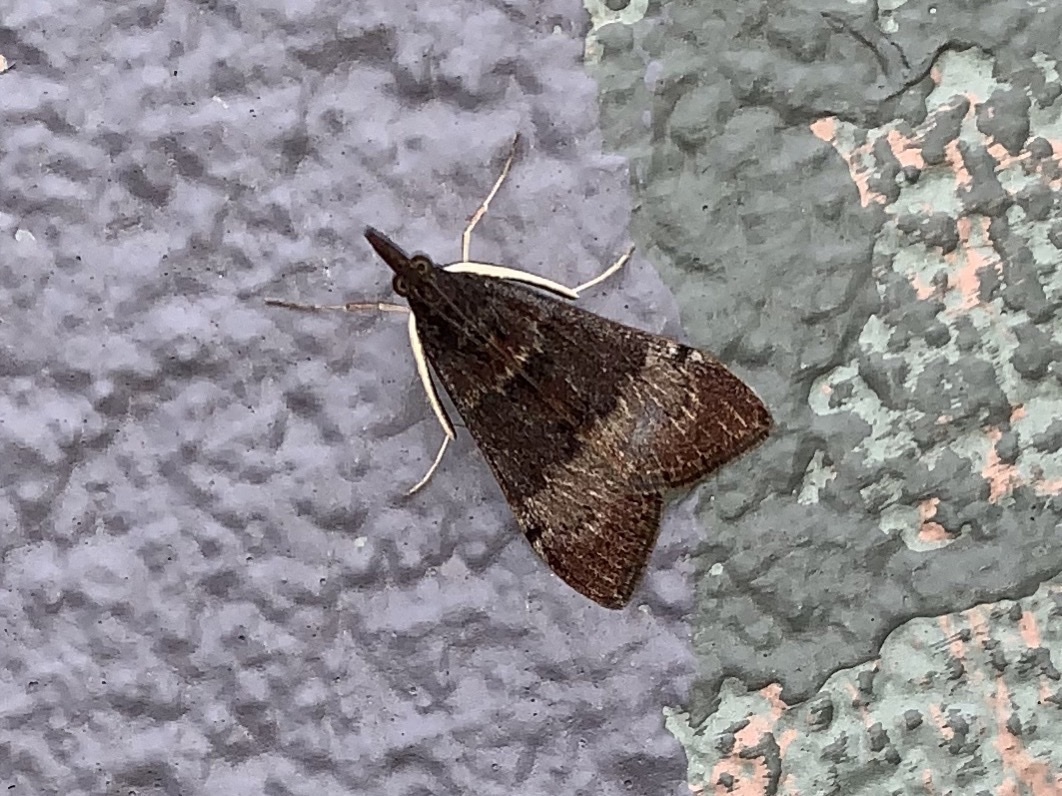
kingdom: Animalia
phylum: Arthropoda
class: Insecta
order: Lepidoptera
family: Crambidae
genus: Uresiphita
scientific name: Uresiphita ornithopteralis
